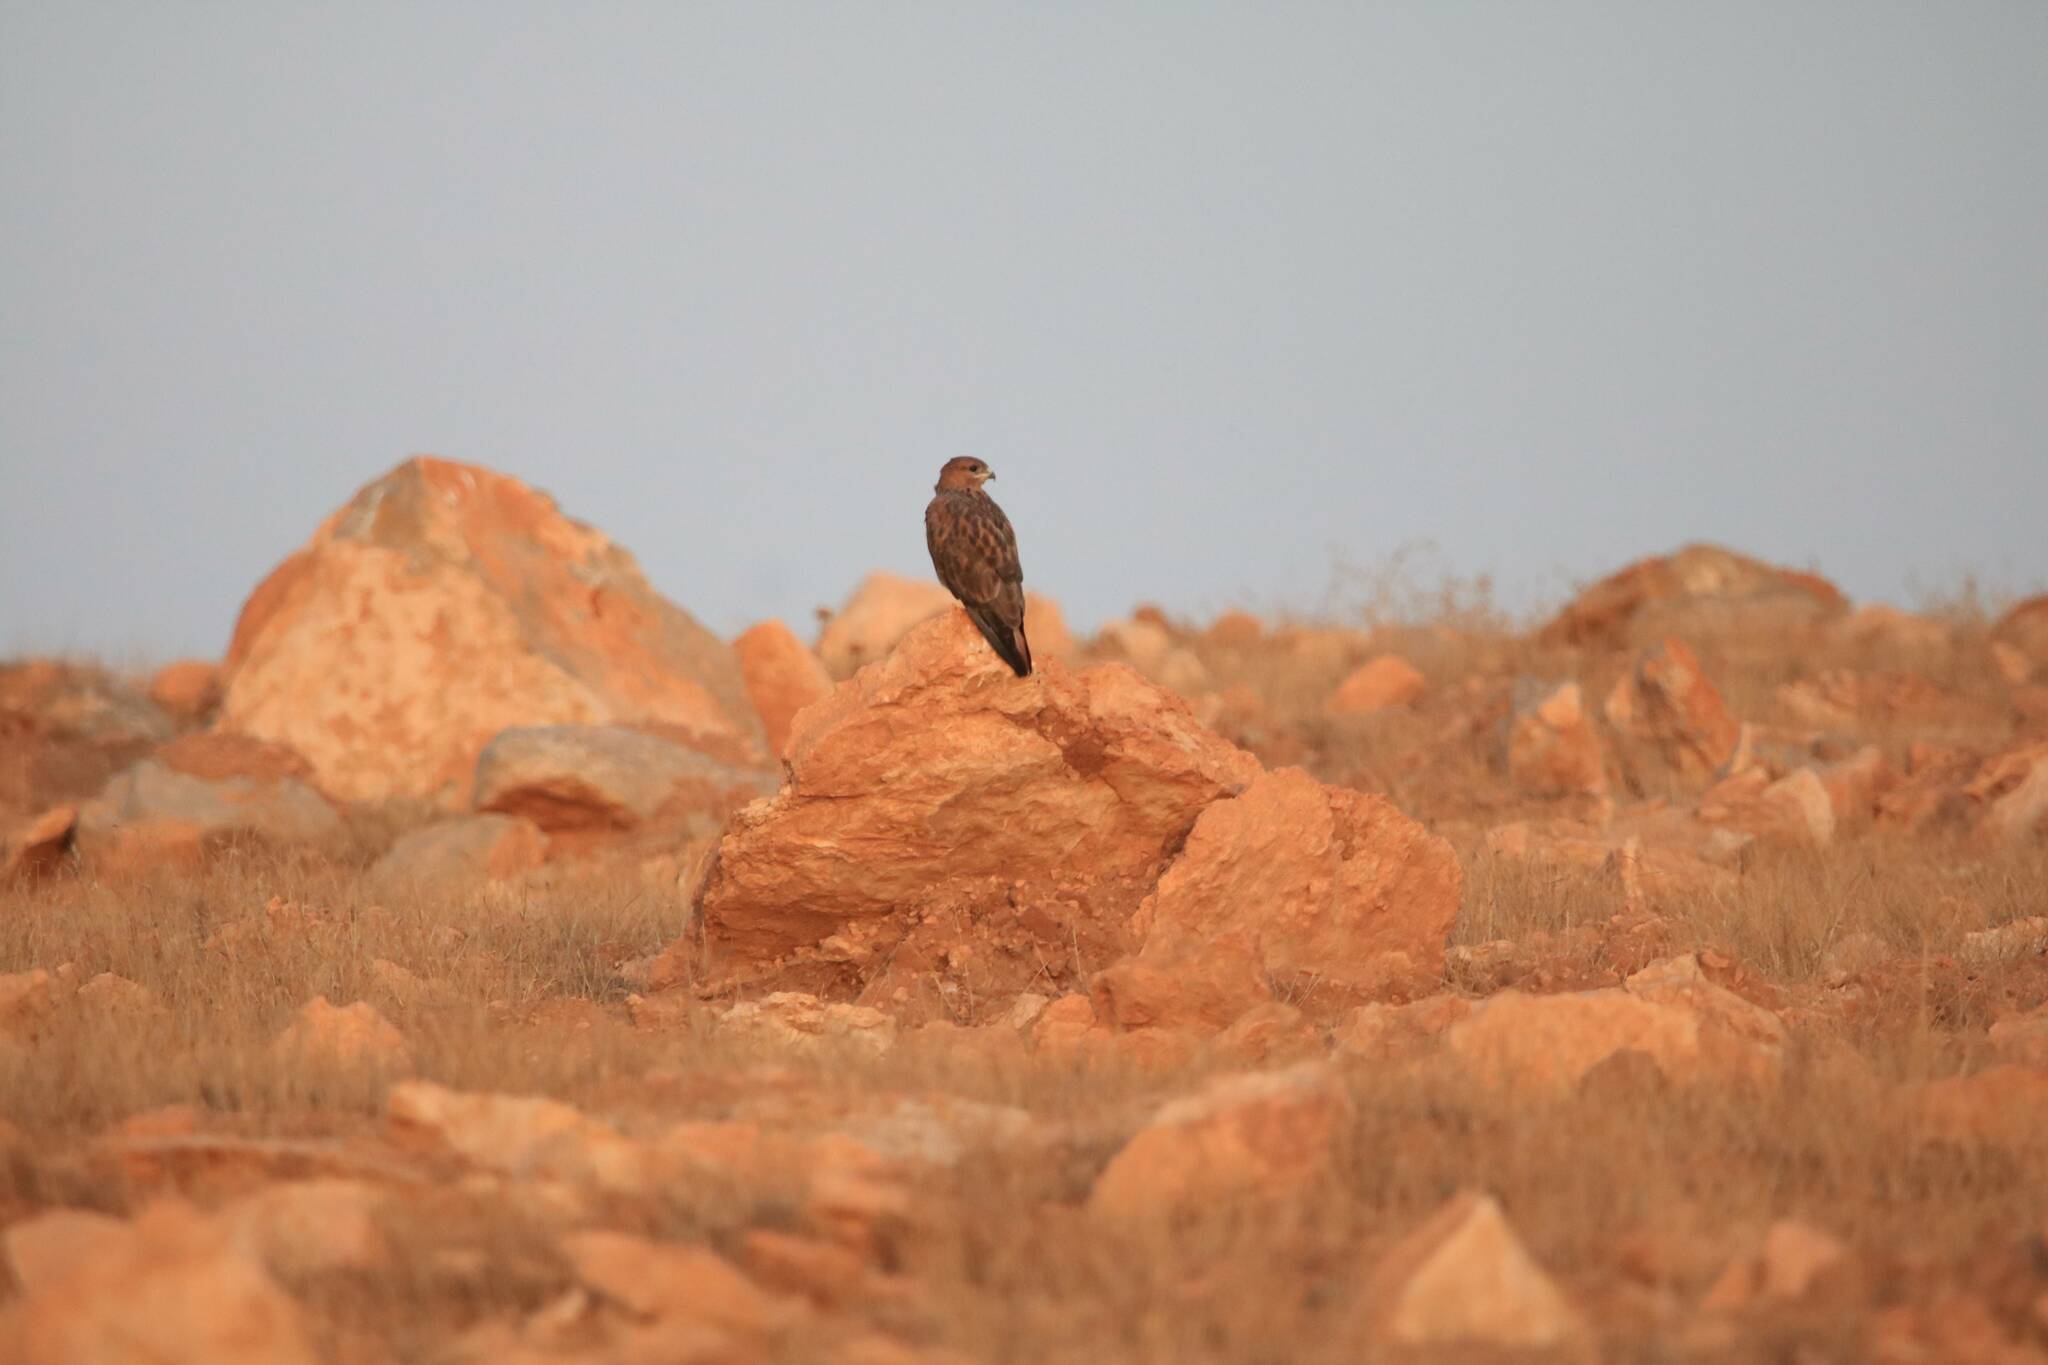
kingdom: Animalia
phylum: Chordata
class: Aves
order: Accipitriformes
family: Accipitridae
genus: Buteo
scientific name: Buteo rufinus
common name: Long-legged buzzard
